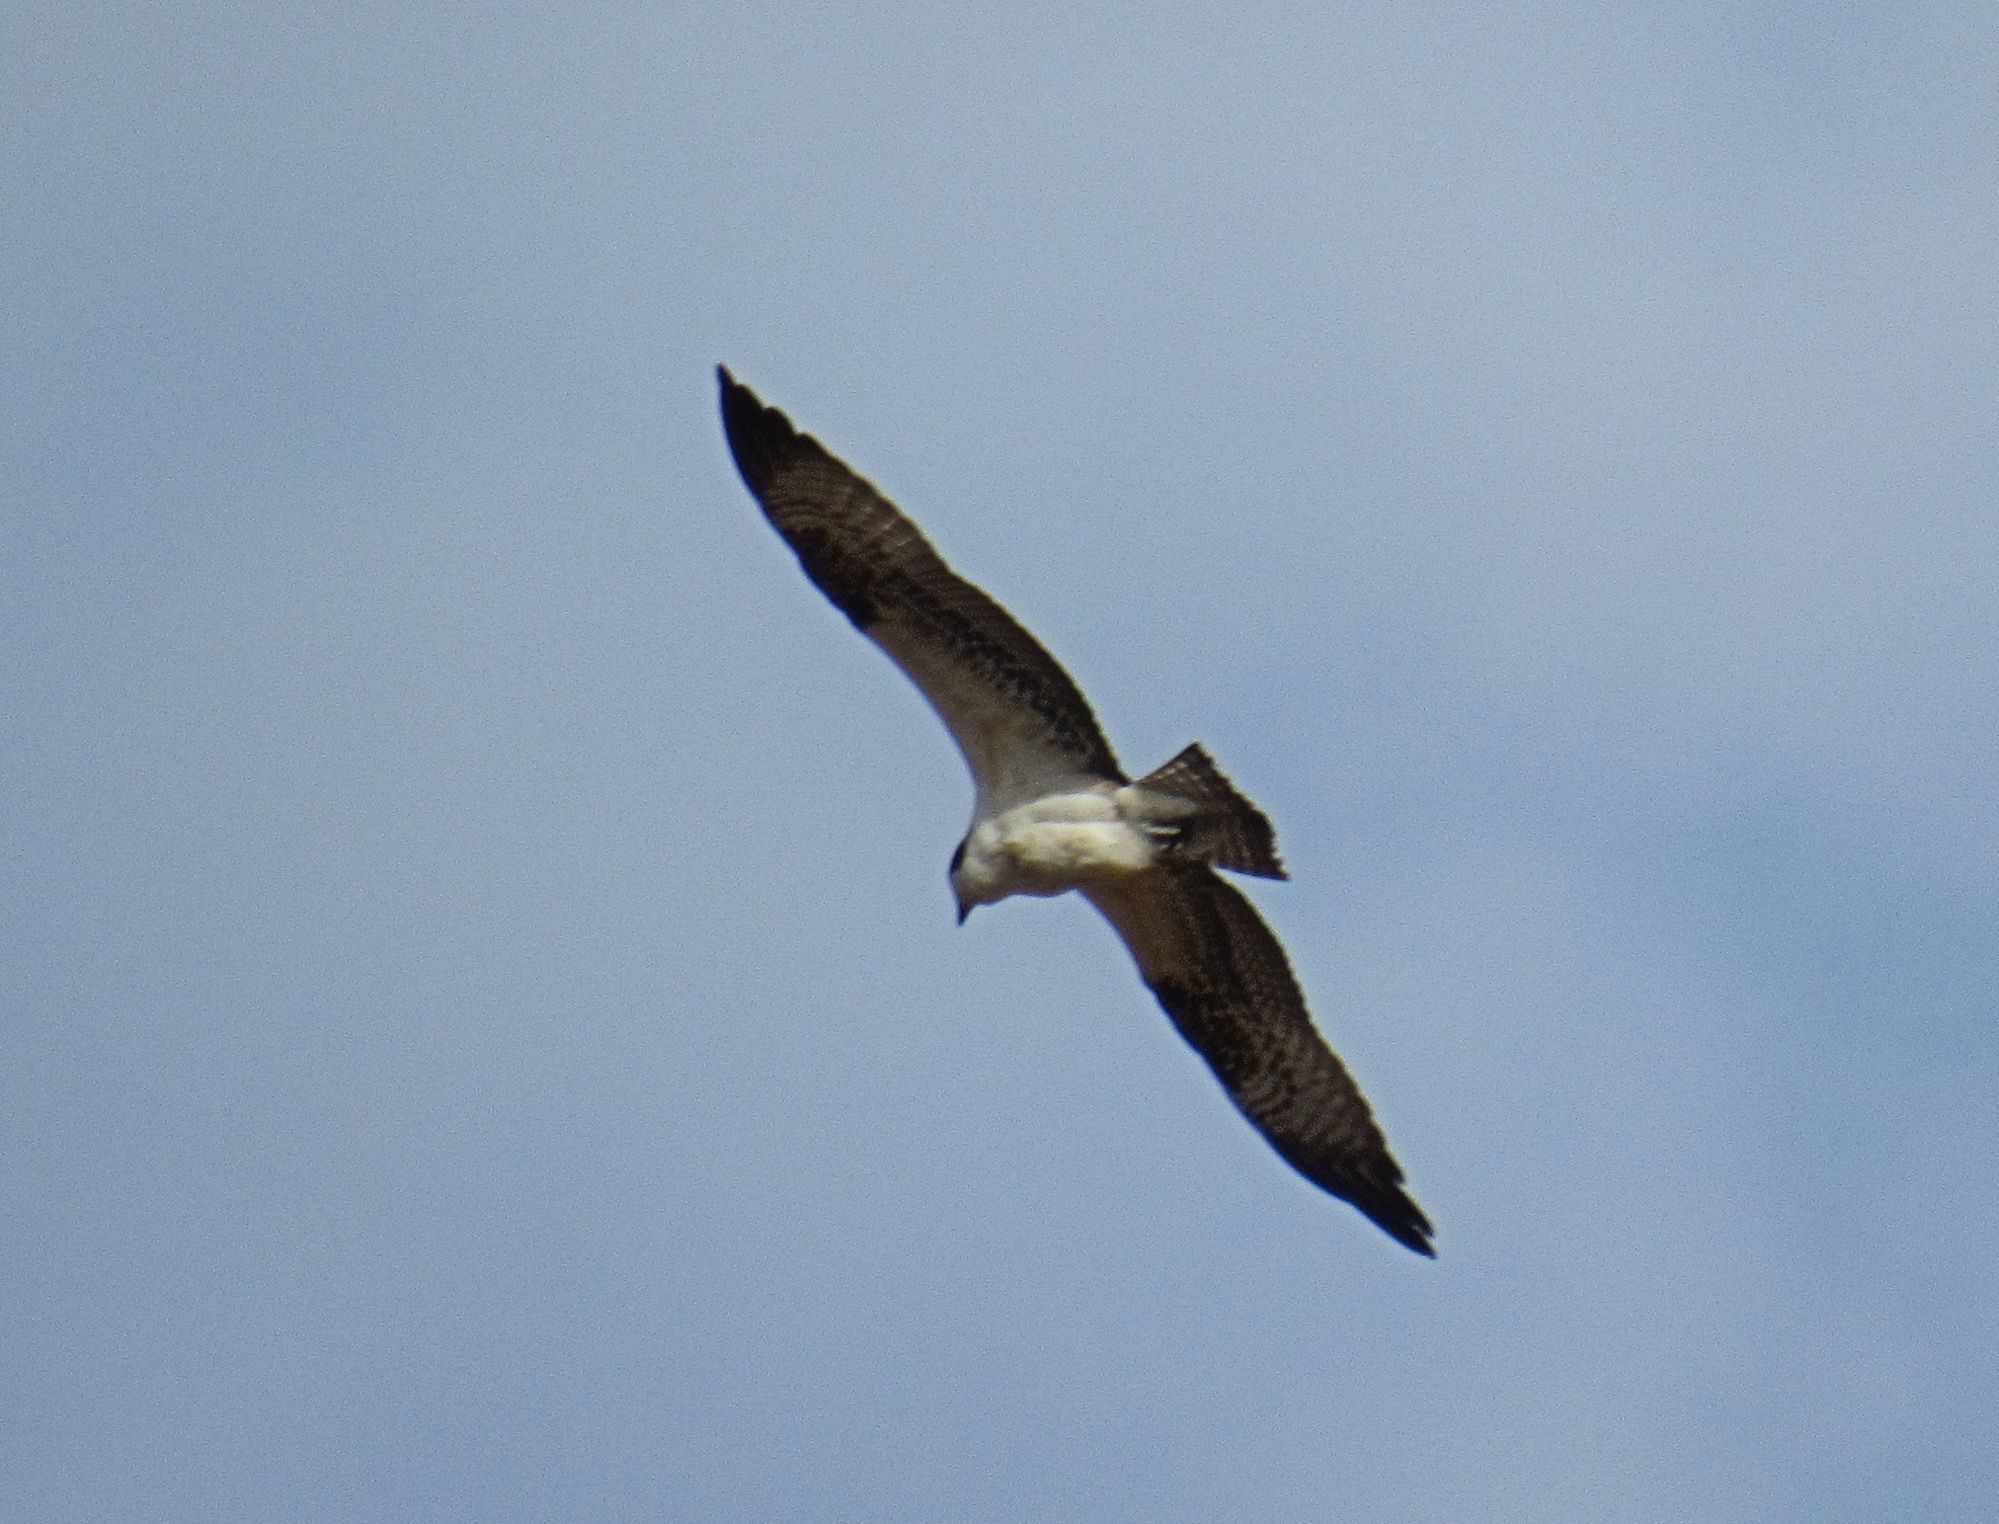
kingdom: Animalia
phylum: Chordata
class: Aves
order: Accipitriformes
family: Pandionidae
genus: Pandion
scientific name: Pandion haliaetus
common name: Osprey
